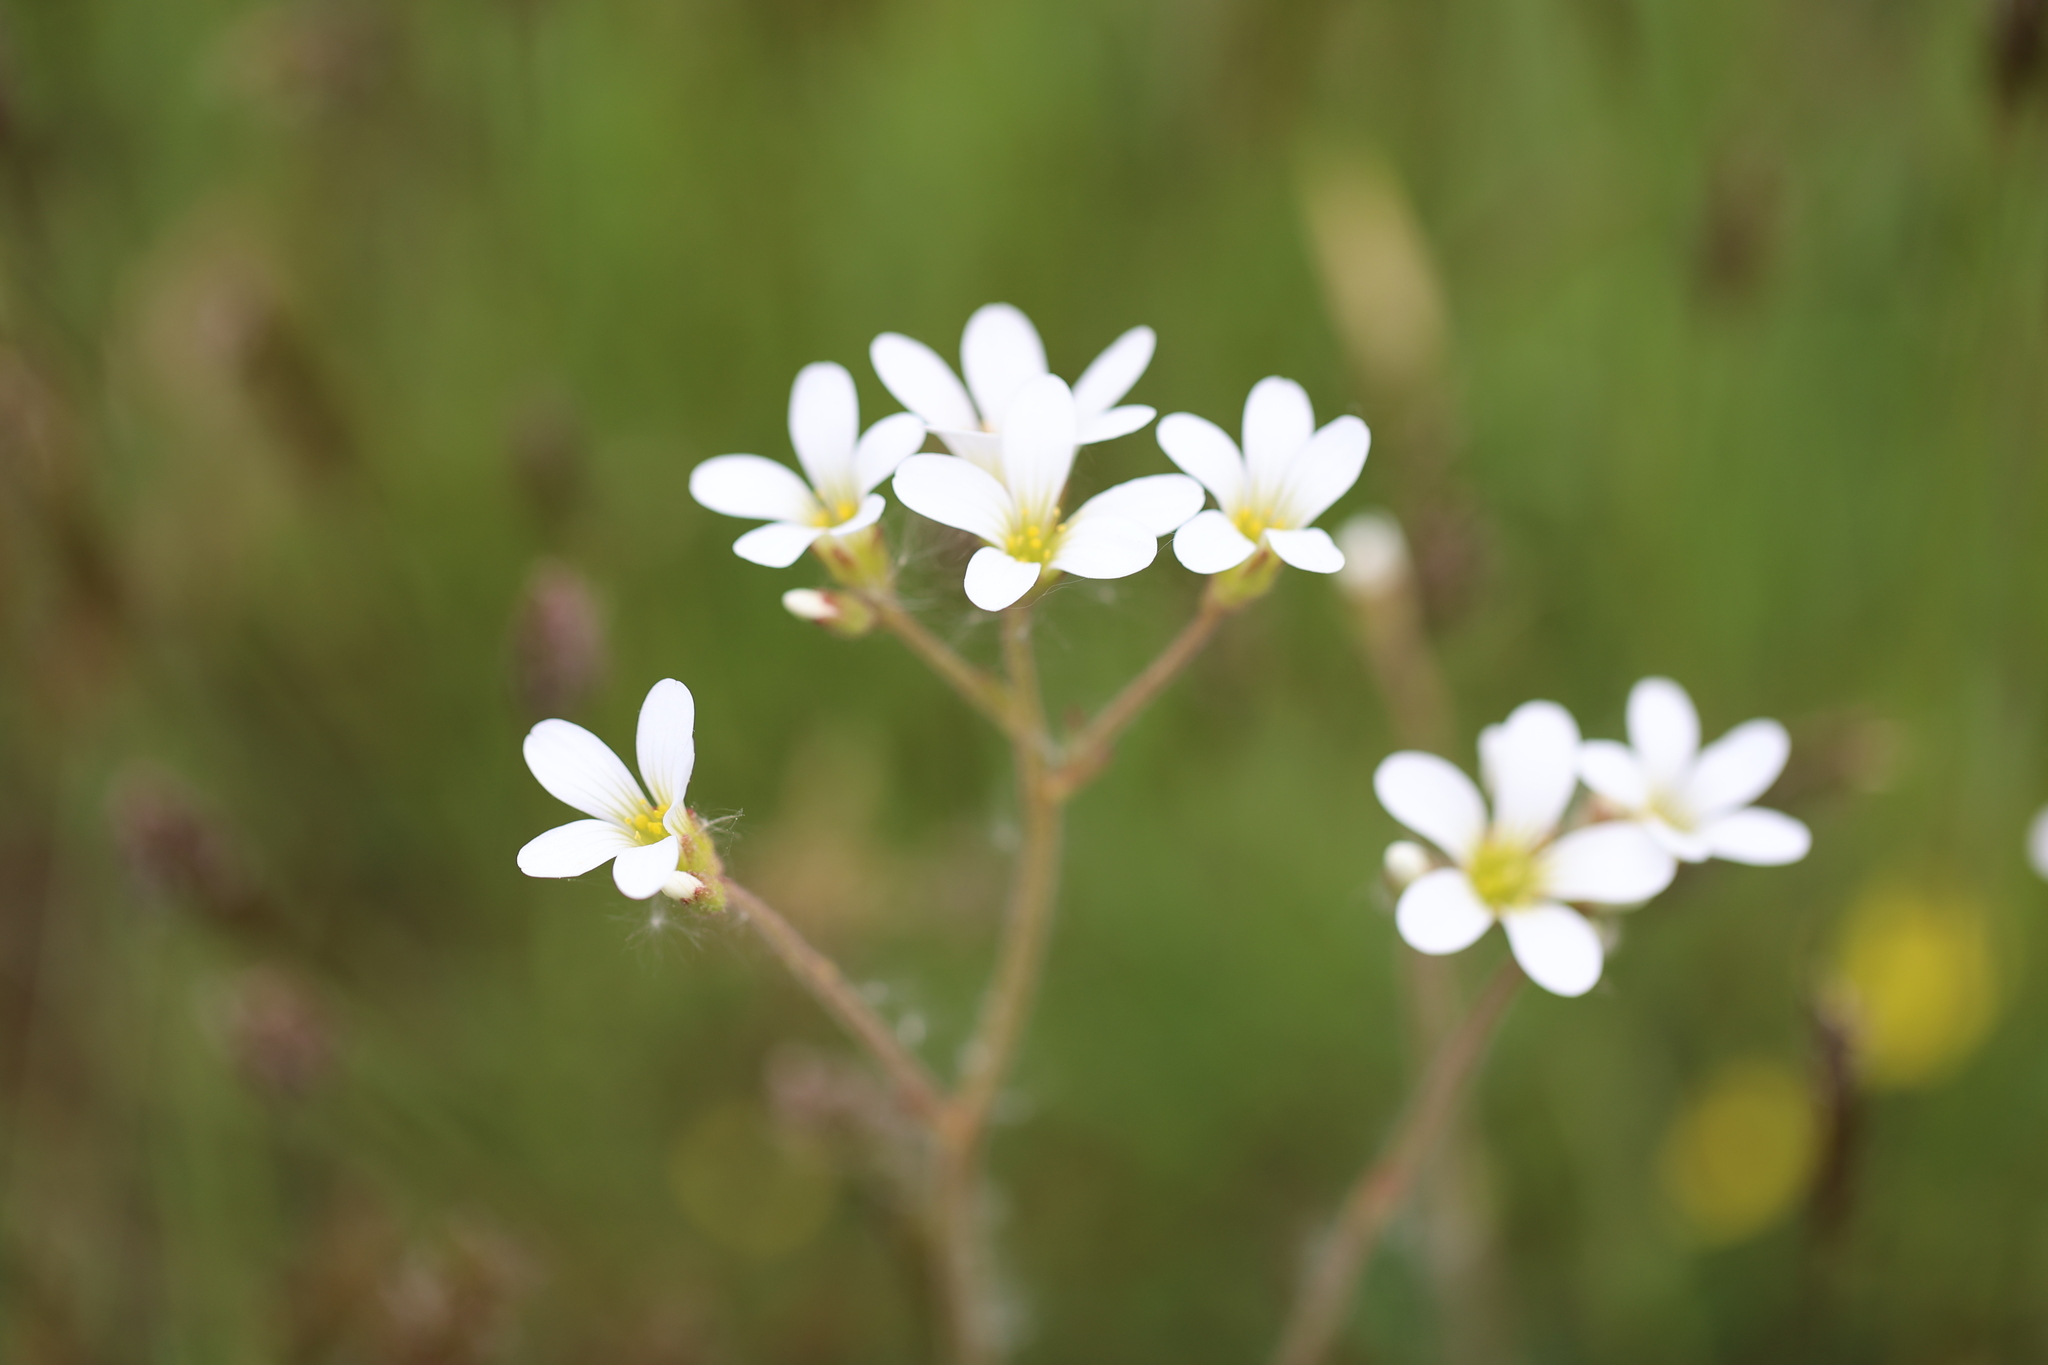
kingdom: Plantae
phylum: Tracheophyta
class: Magnoliopsida
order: Saxifragales
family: Saxifragaceae
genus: Saxifraga
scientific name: Saxifraga granulata
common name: Meadow saxifrage
